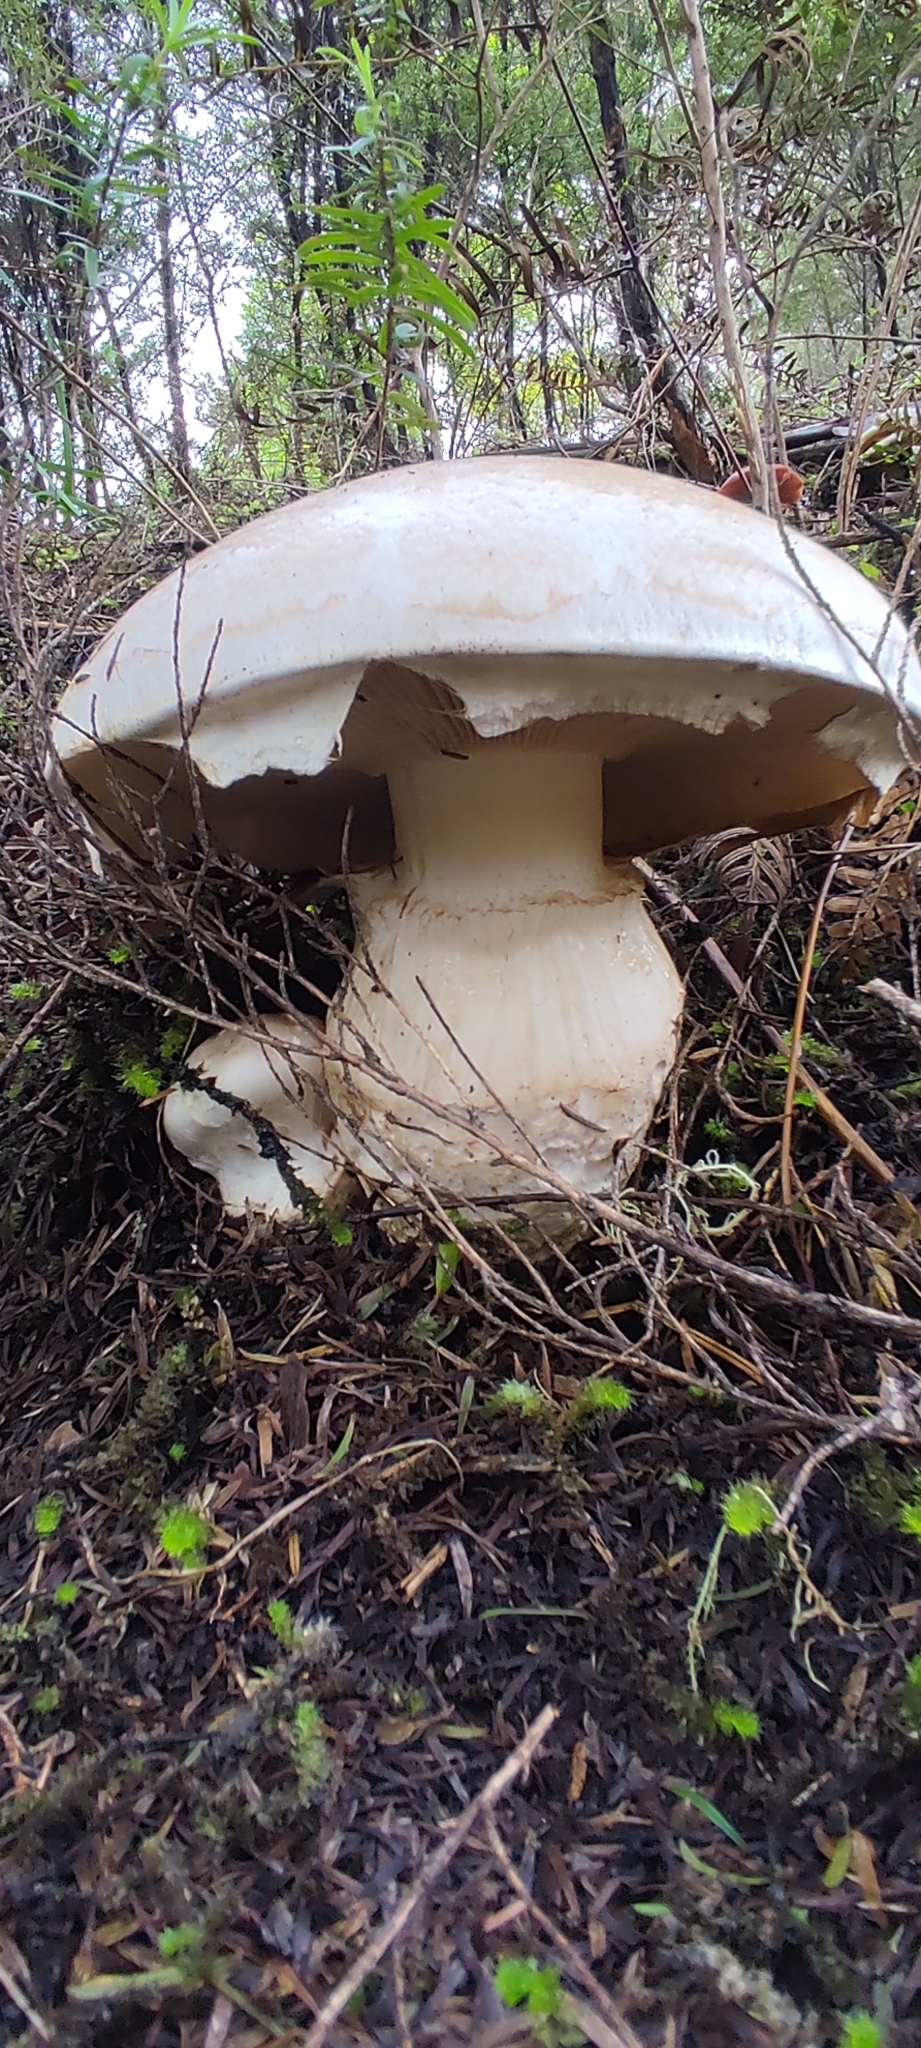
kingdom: Fungi
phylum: Basidiomycota
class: Agaricomycetes
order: Agaricales
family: Cortinariaceae
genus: Austrocortinarius
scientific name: Austrocortinarius australiensis
